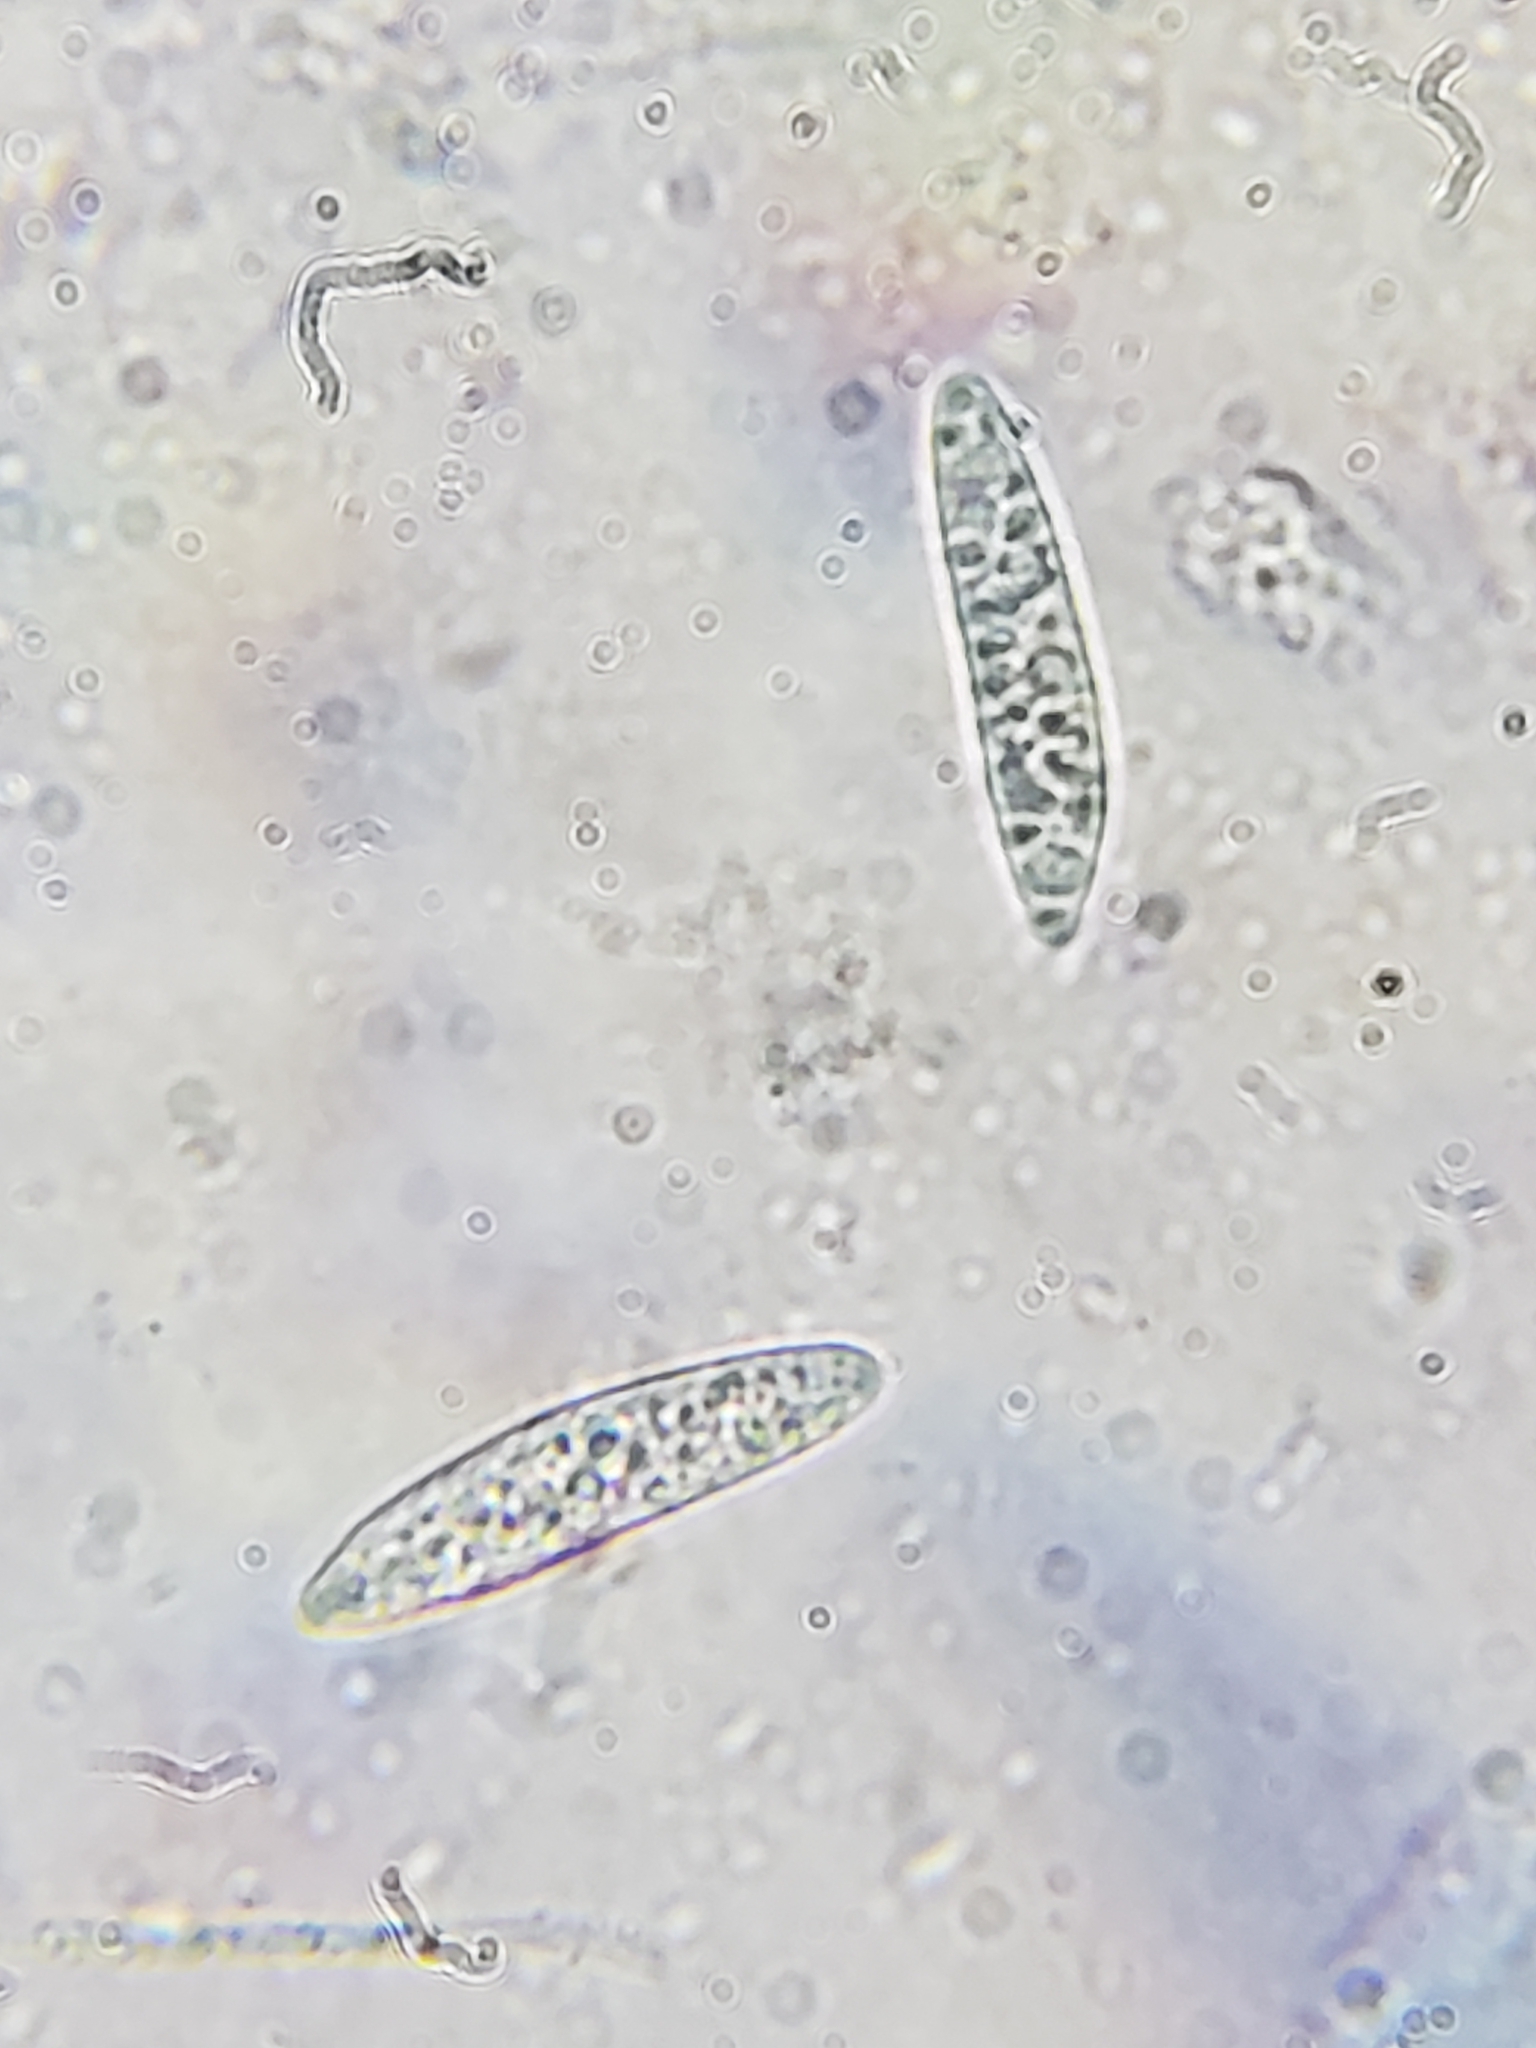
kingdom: Fungi
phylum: Ascomycota
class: Leotiomycetes
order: Helotiales
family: Helotiaceae
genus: Tatraea
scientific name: Tatraea macrospora
